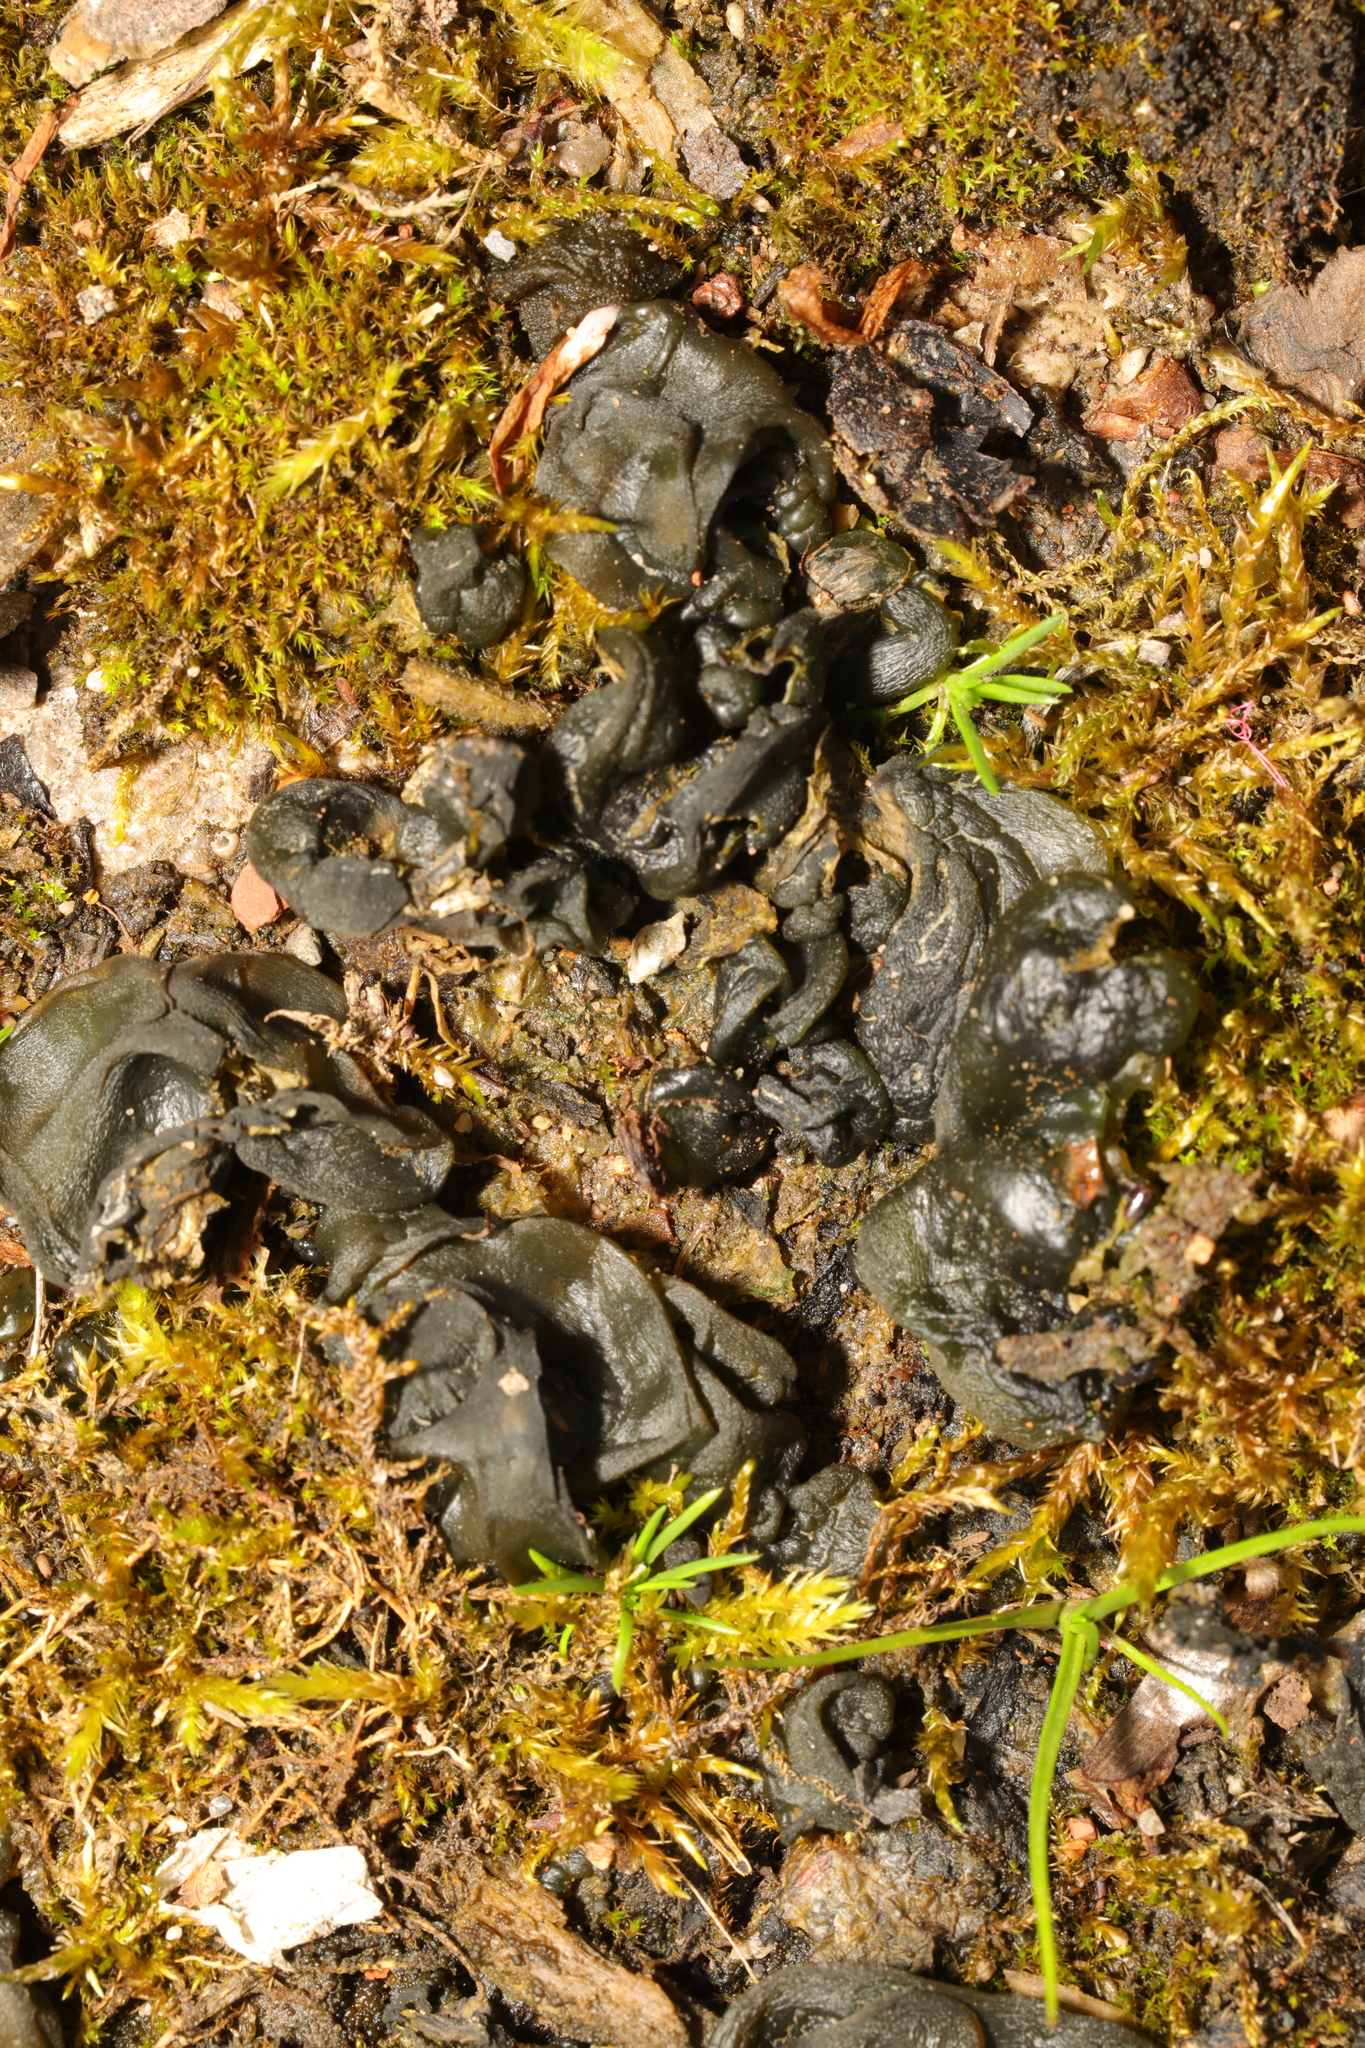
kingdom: Bacteria
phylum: Cyanobacteria
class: Cyanobacteriia
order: Cyanobacteriales
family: Nostocaceae
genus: Nostoc
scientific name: Nostoc commune
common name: Star jelly
